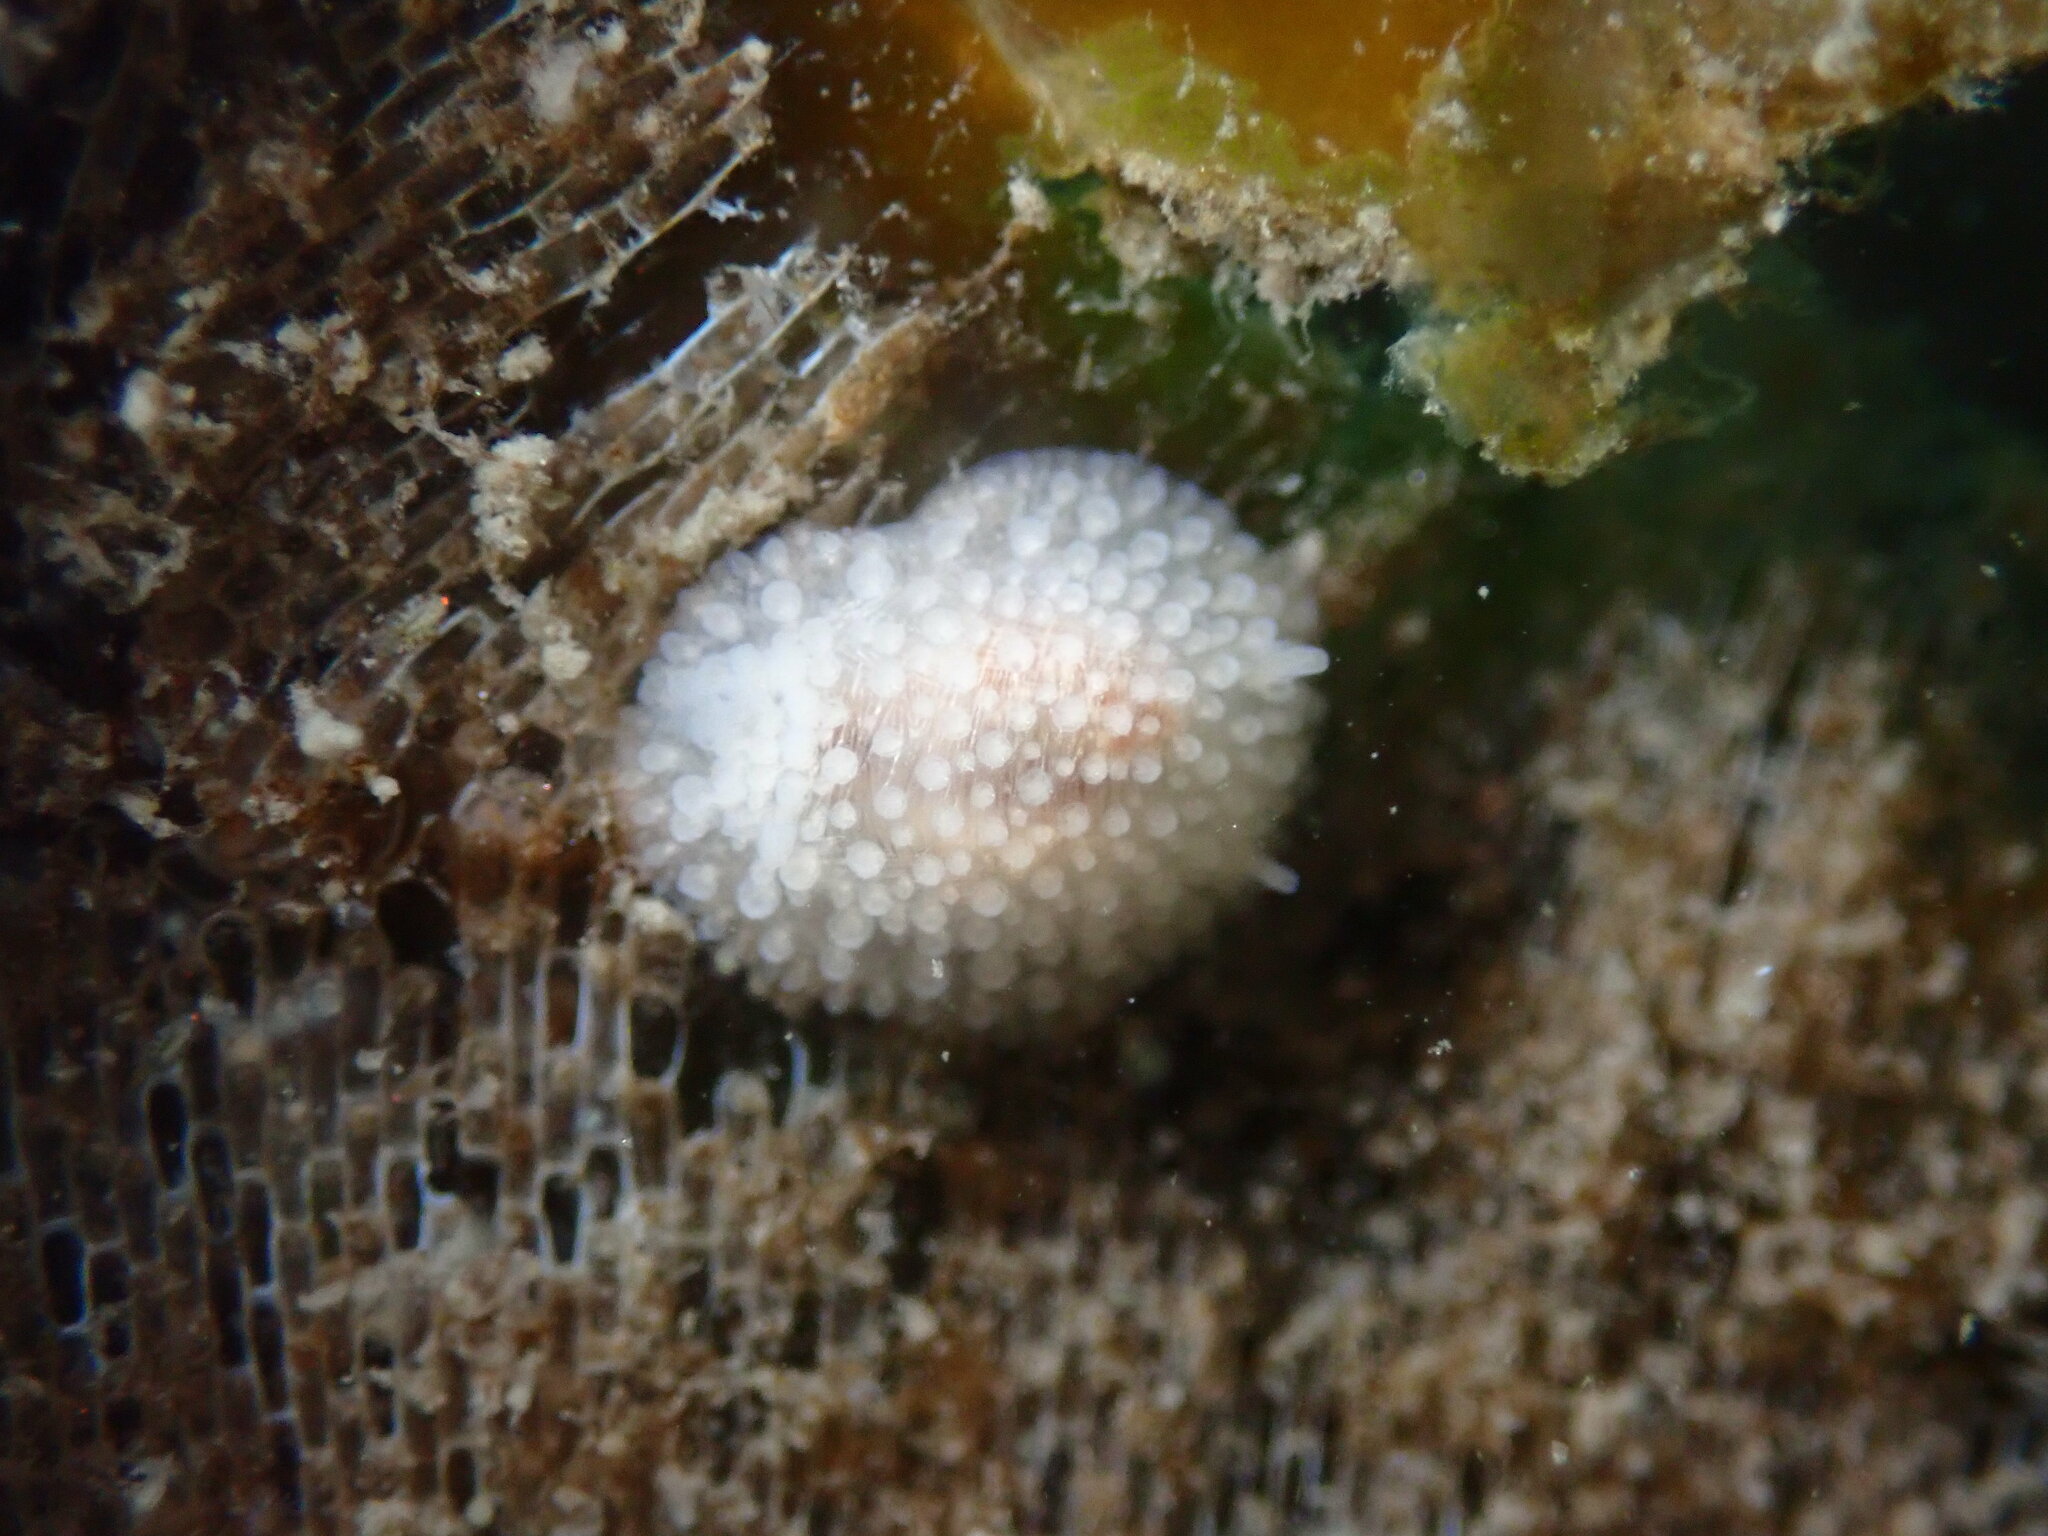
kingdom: Animalia
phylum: Mollusca
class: Gastropoda
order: Nudibranchia
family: Onchidorididae
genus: Onchidoris
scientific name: Onchidoris muricata
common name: Rough doris
